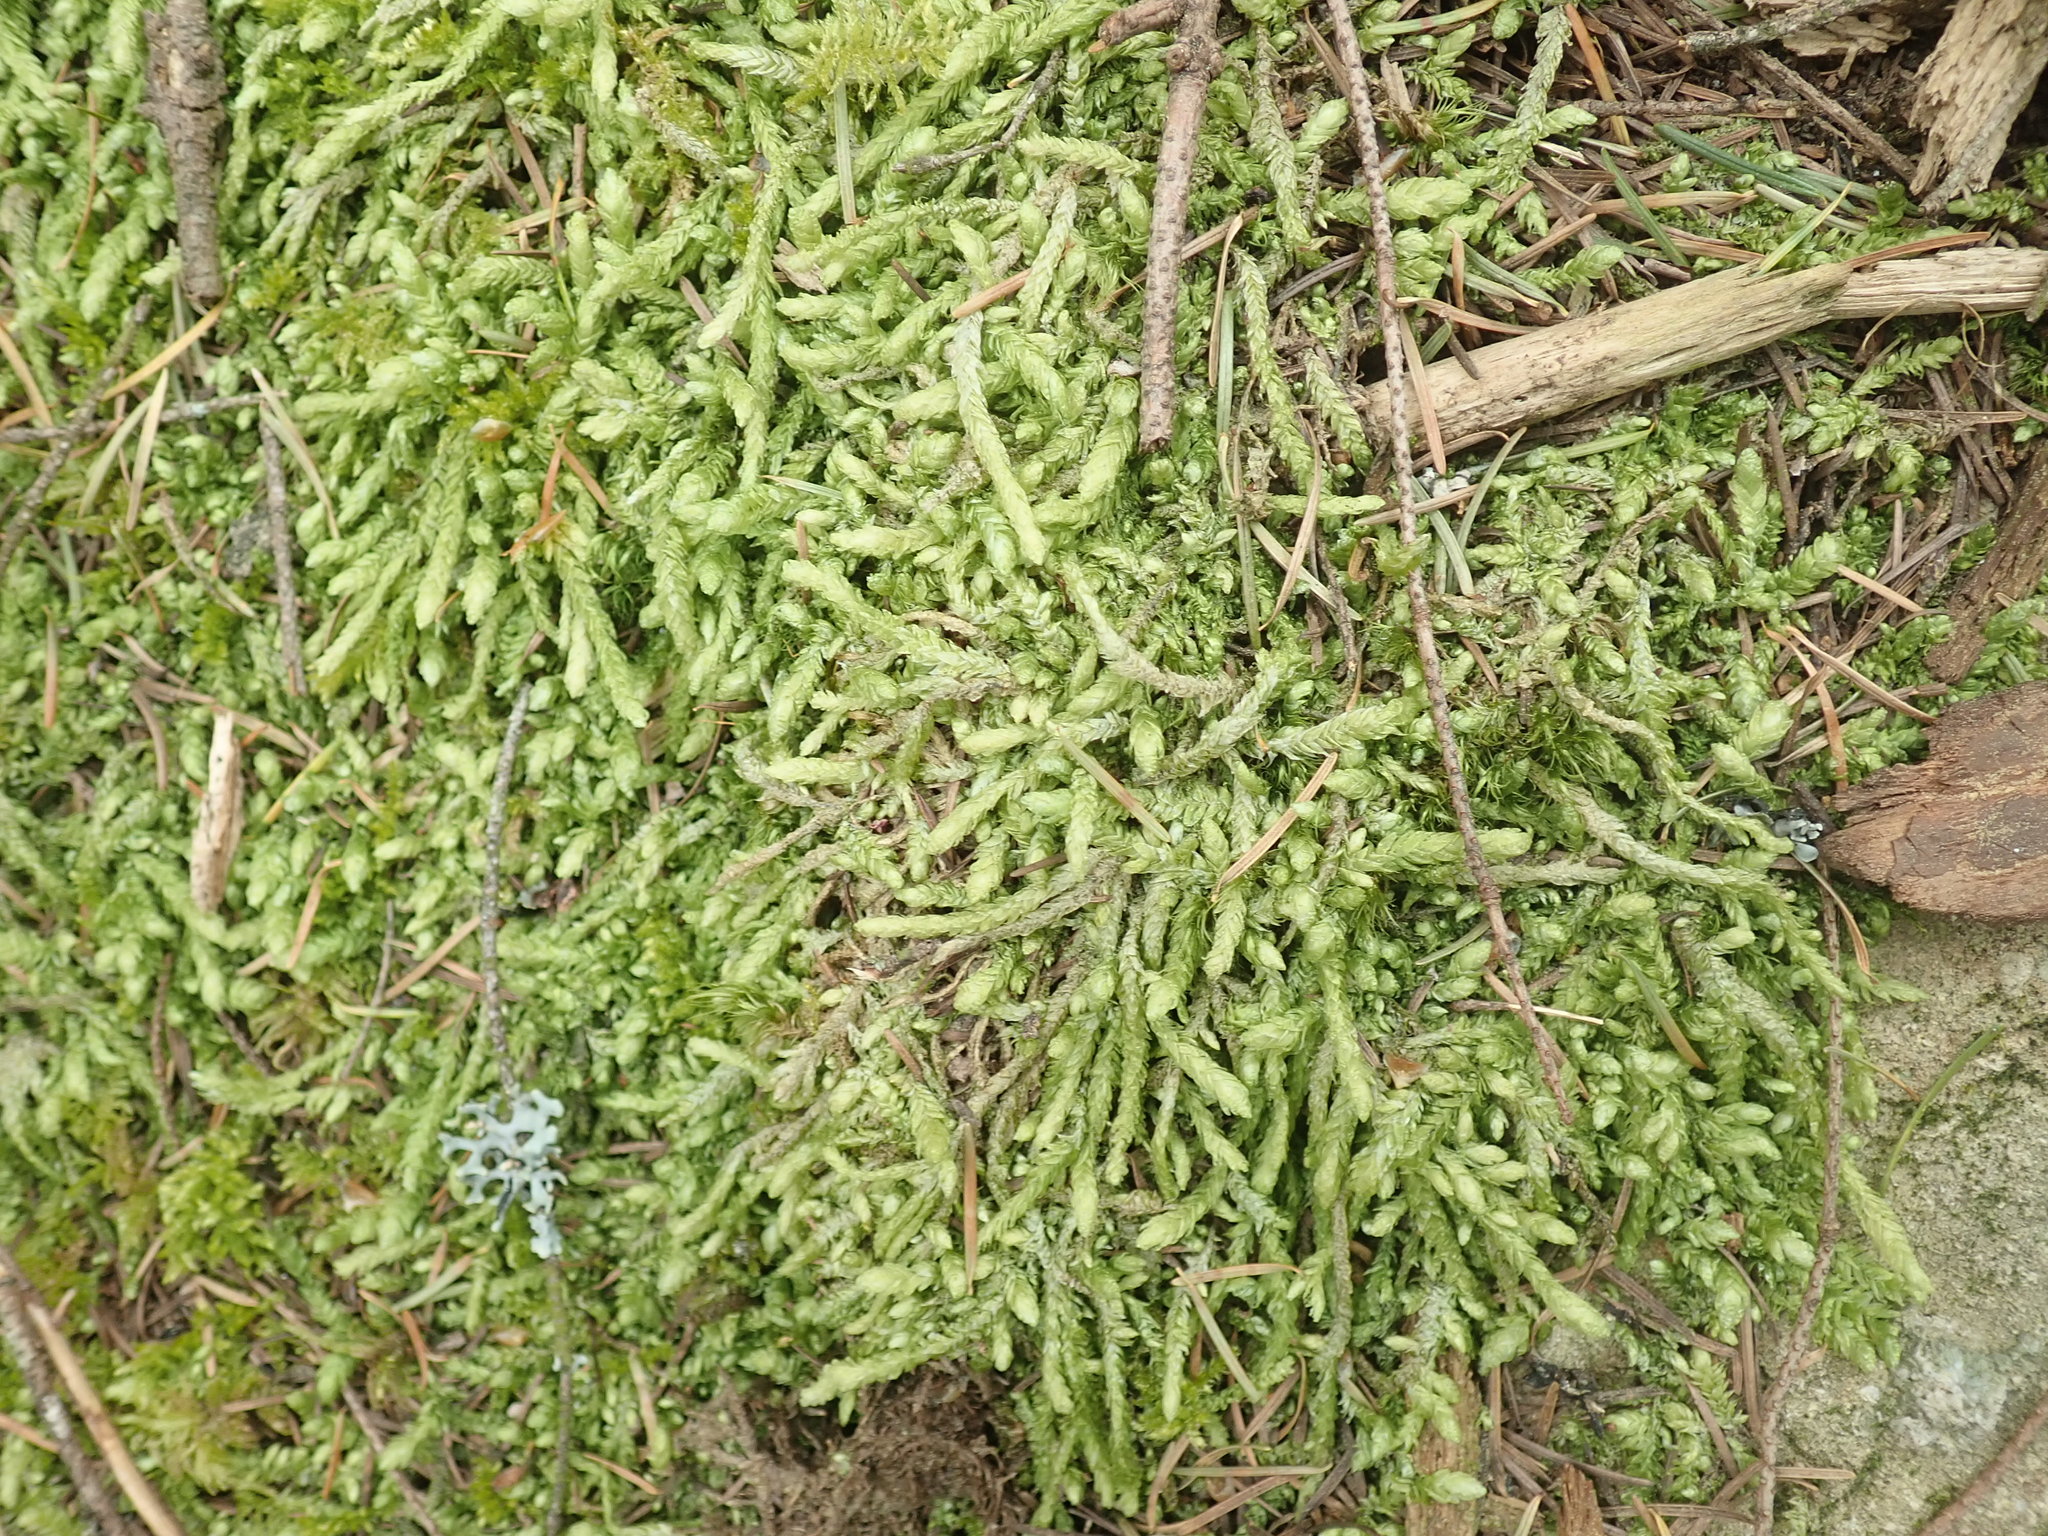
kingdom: Plantae
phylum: Bryophyta
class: Bryopsida
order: Hypnales
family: Plagiotheciaceae
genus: Plagiothecium
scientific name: Plagiothecium undulatum
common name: Waved silk-moss
